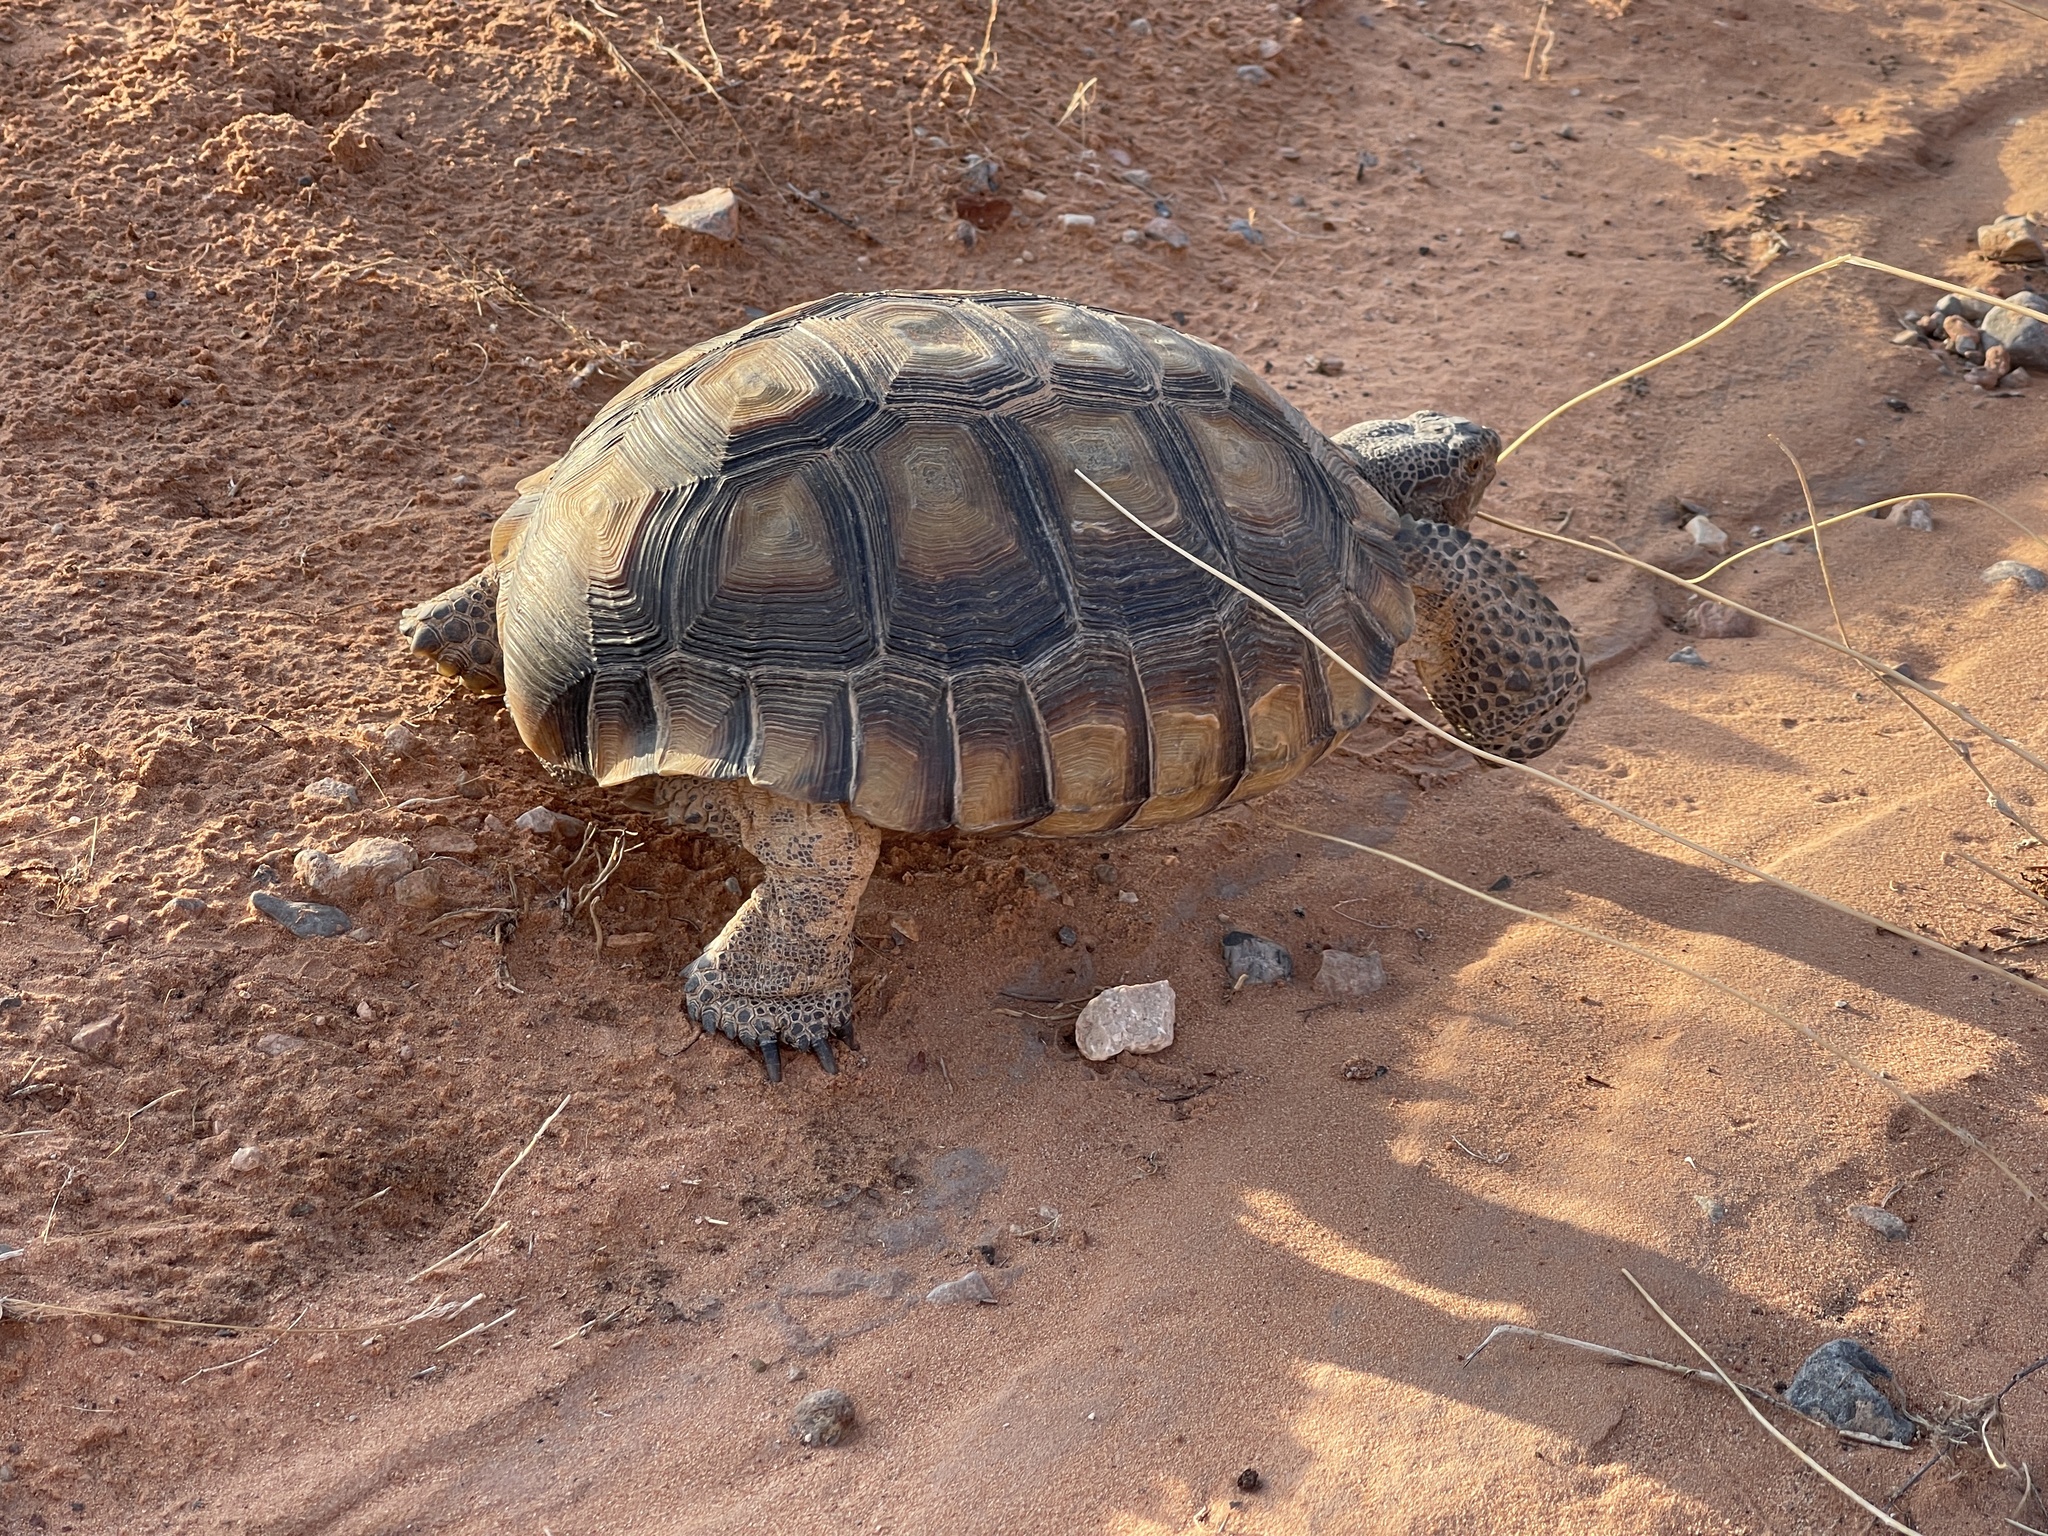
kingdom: Animalia
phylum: Chordata
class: Testudines
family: Testudinidae
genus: Gopherus
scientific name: Gopherus agassizii
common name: Mojave desert tortoise
